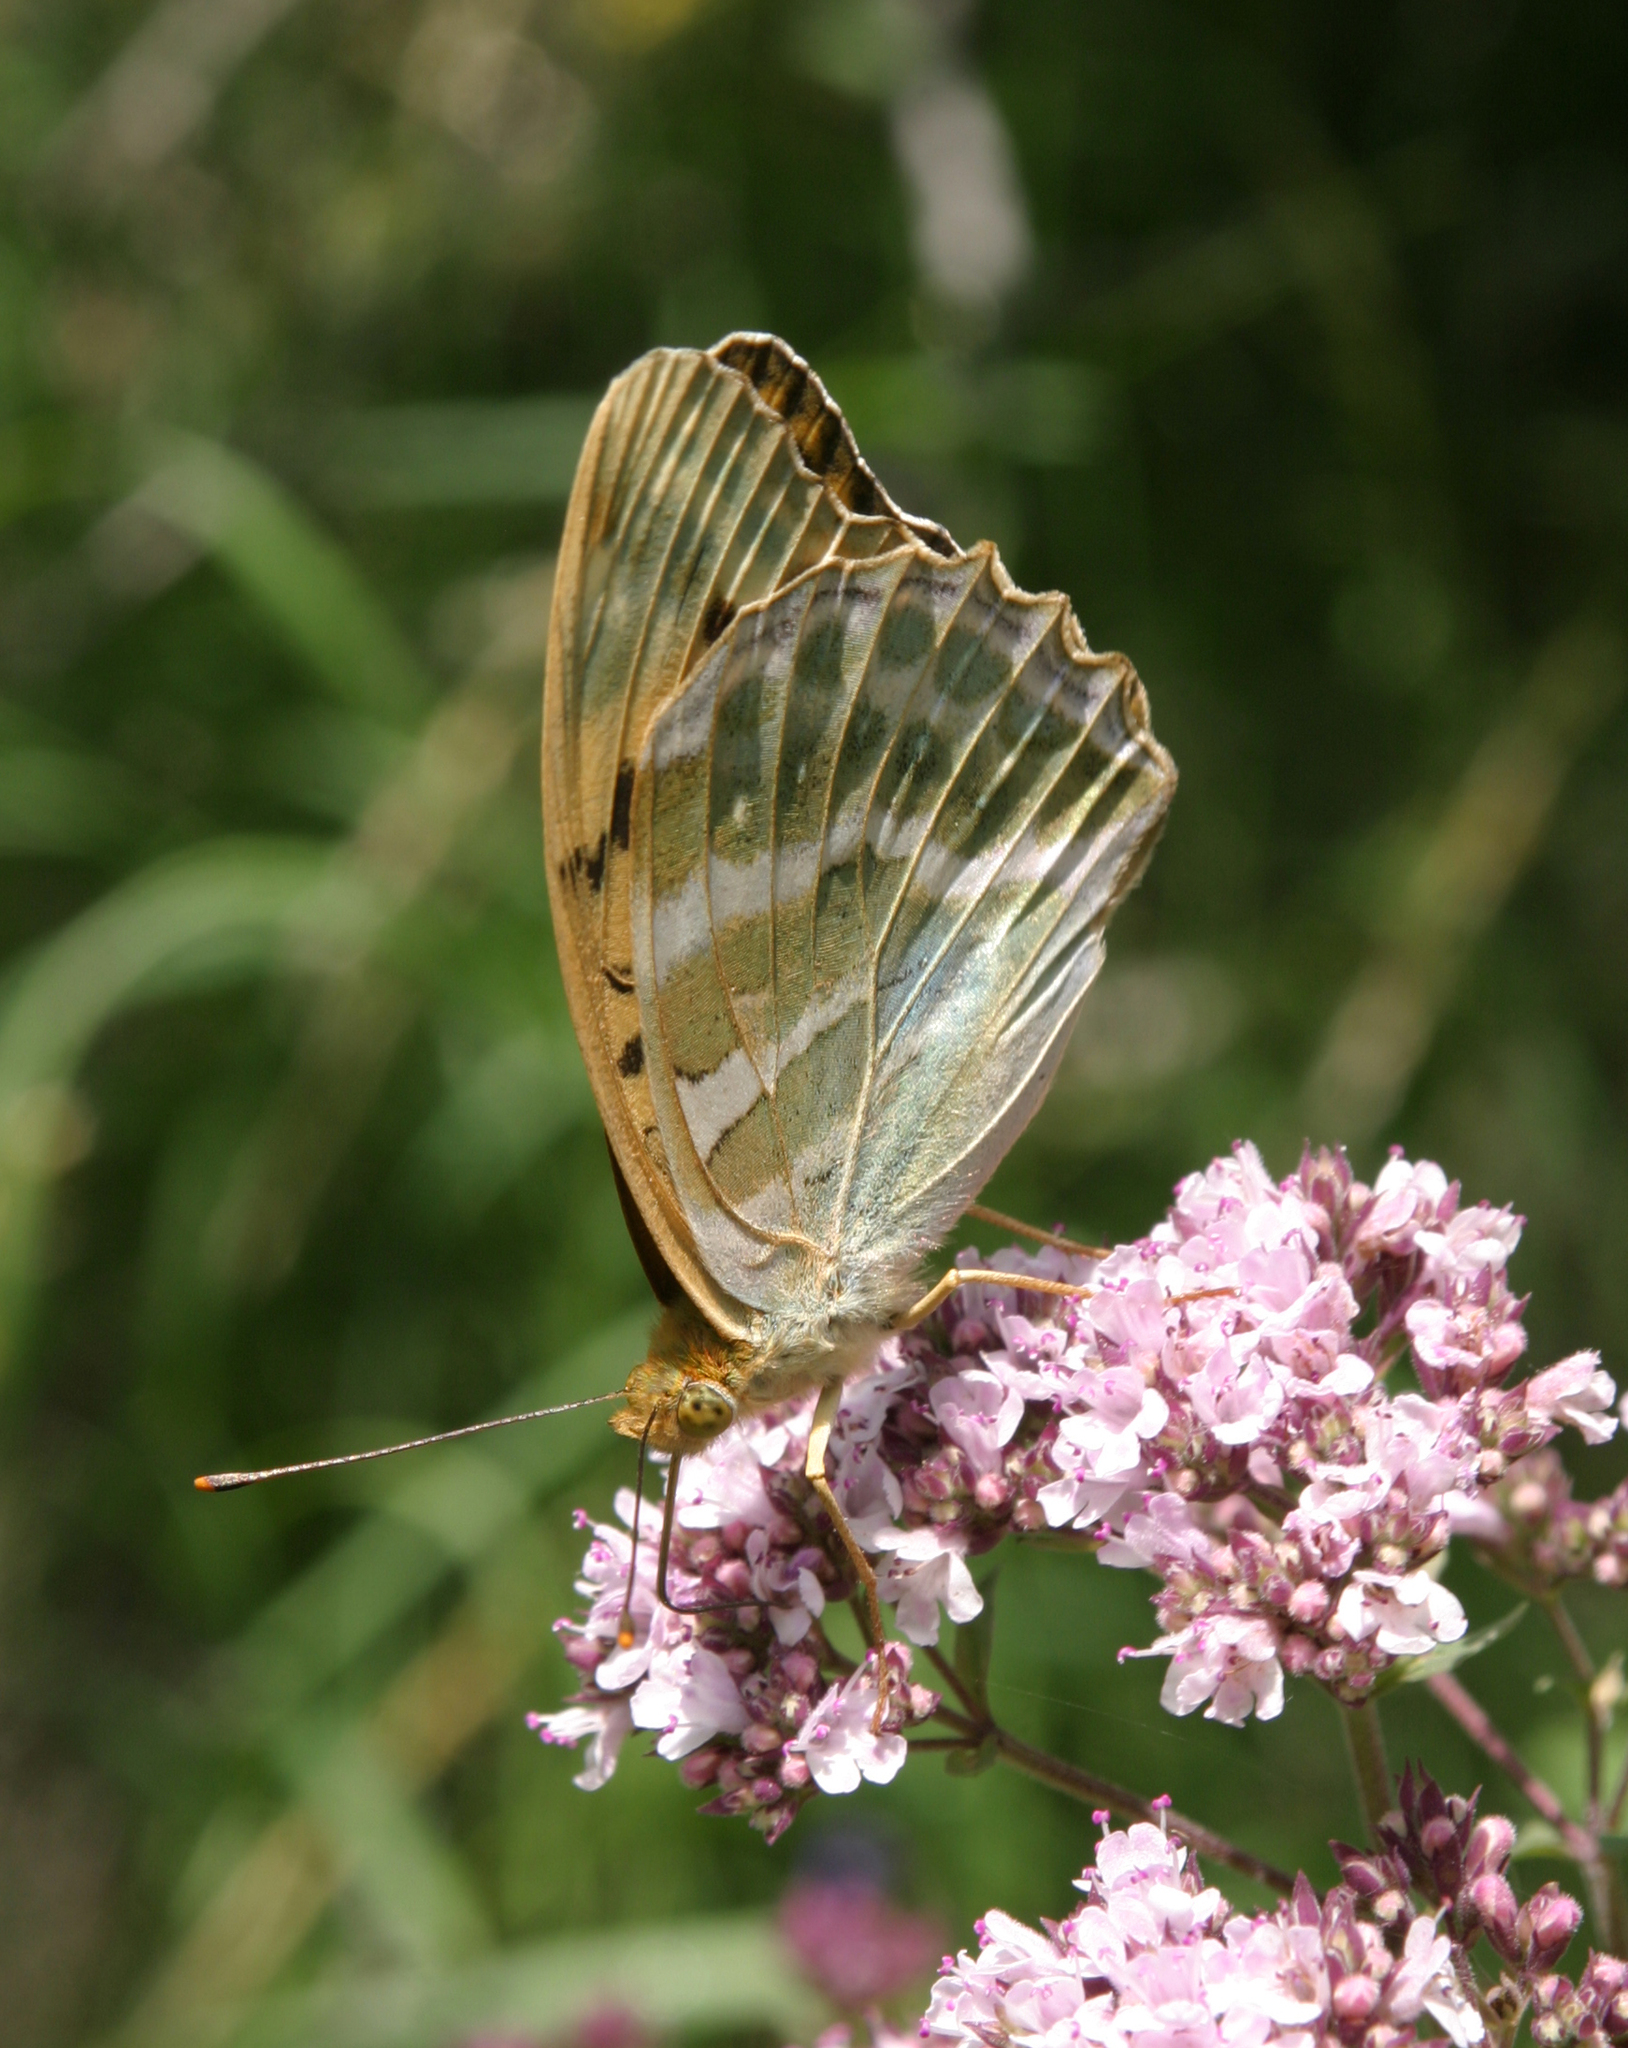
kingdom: Animalia
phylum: Arthropoda
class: Insecta
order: Lepidoptera
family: Nymphalidae
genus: Argynnis
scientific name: Argynnis paphia
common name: Silver-washed fritillary
